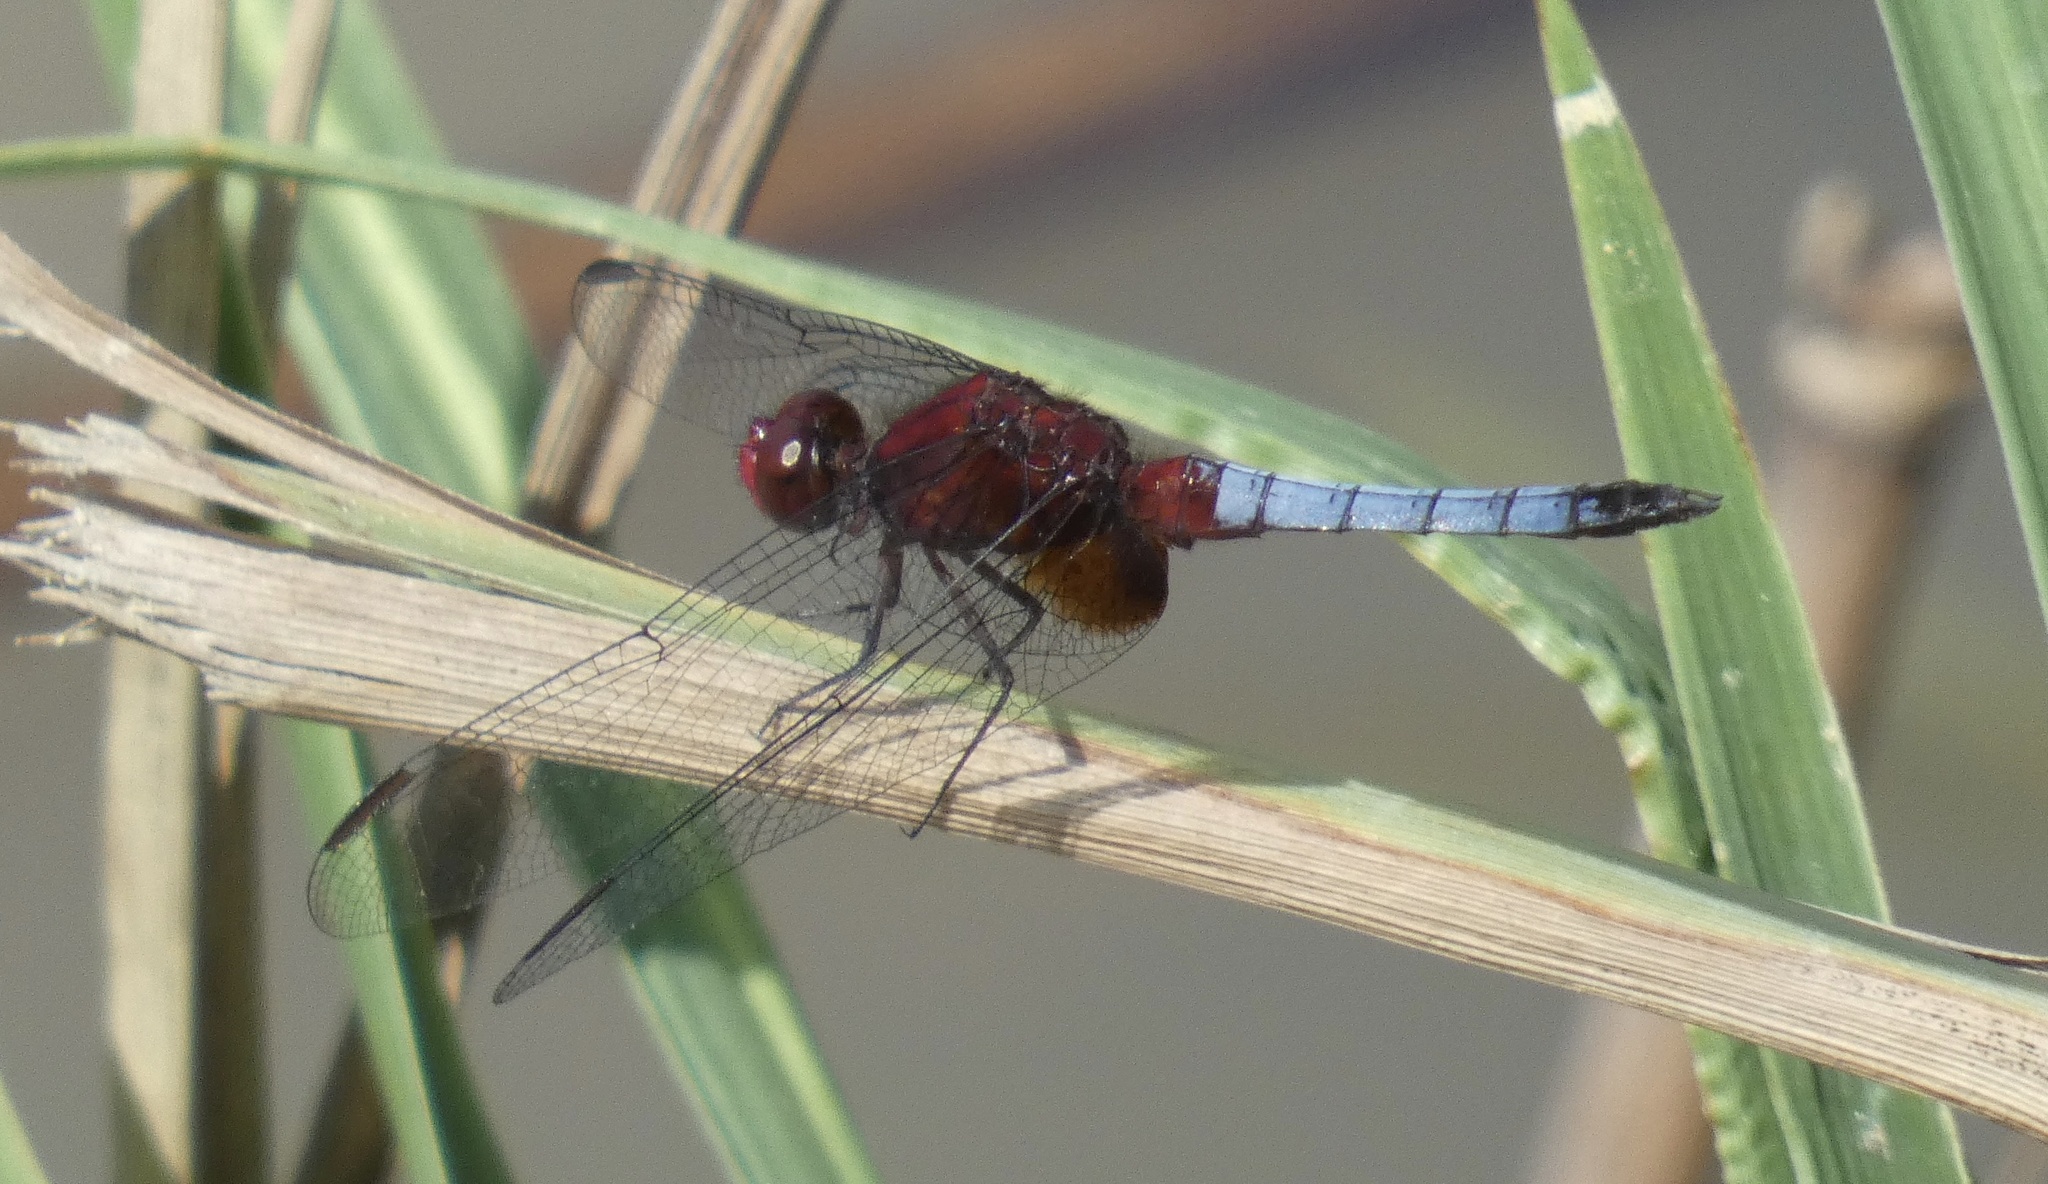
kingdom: Animalia
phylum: Arthropoda
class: Insecta
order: Odonata
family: Libellulidae
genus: Erythrodiplax
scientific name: Erythrodiplax fusca
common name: Red-faced dragonlet
